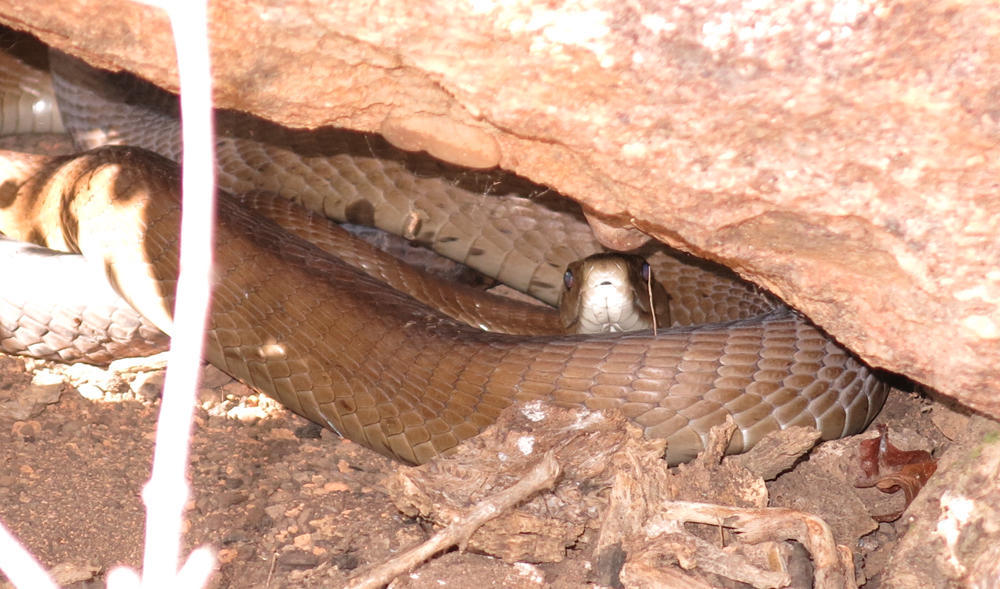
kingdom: Animalia
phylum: Chordata
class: Squamata
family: Elapidae
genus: Dendroaspis
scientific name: Dendroaspis polylepis
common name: Black mamba
